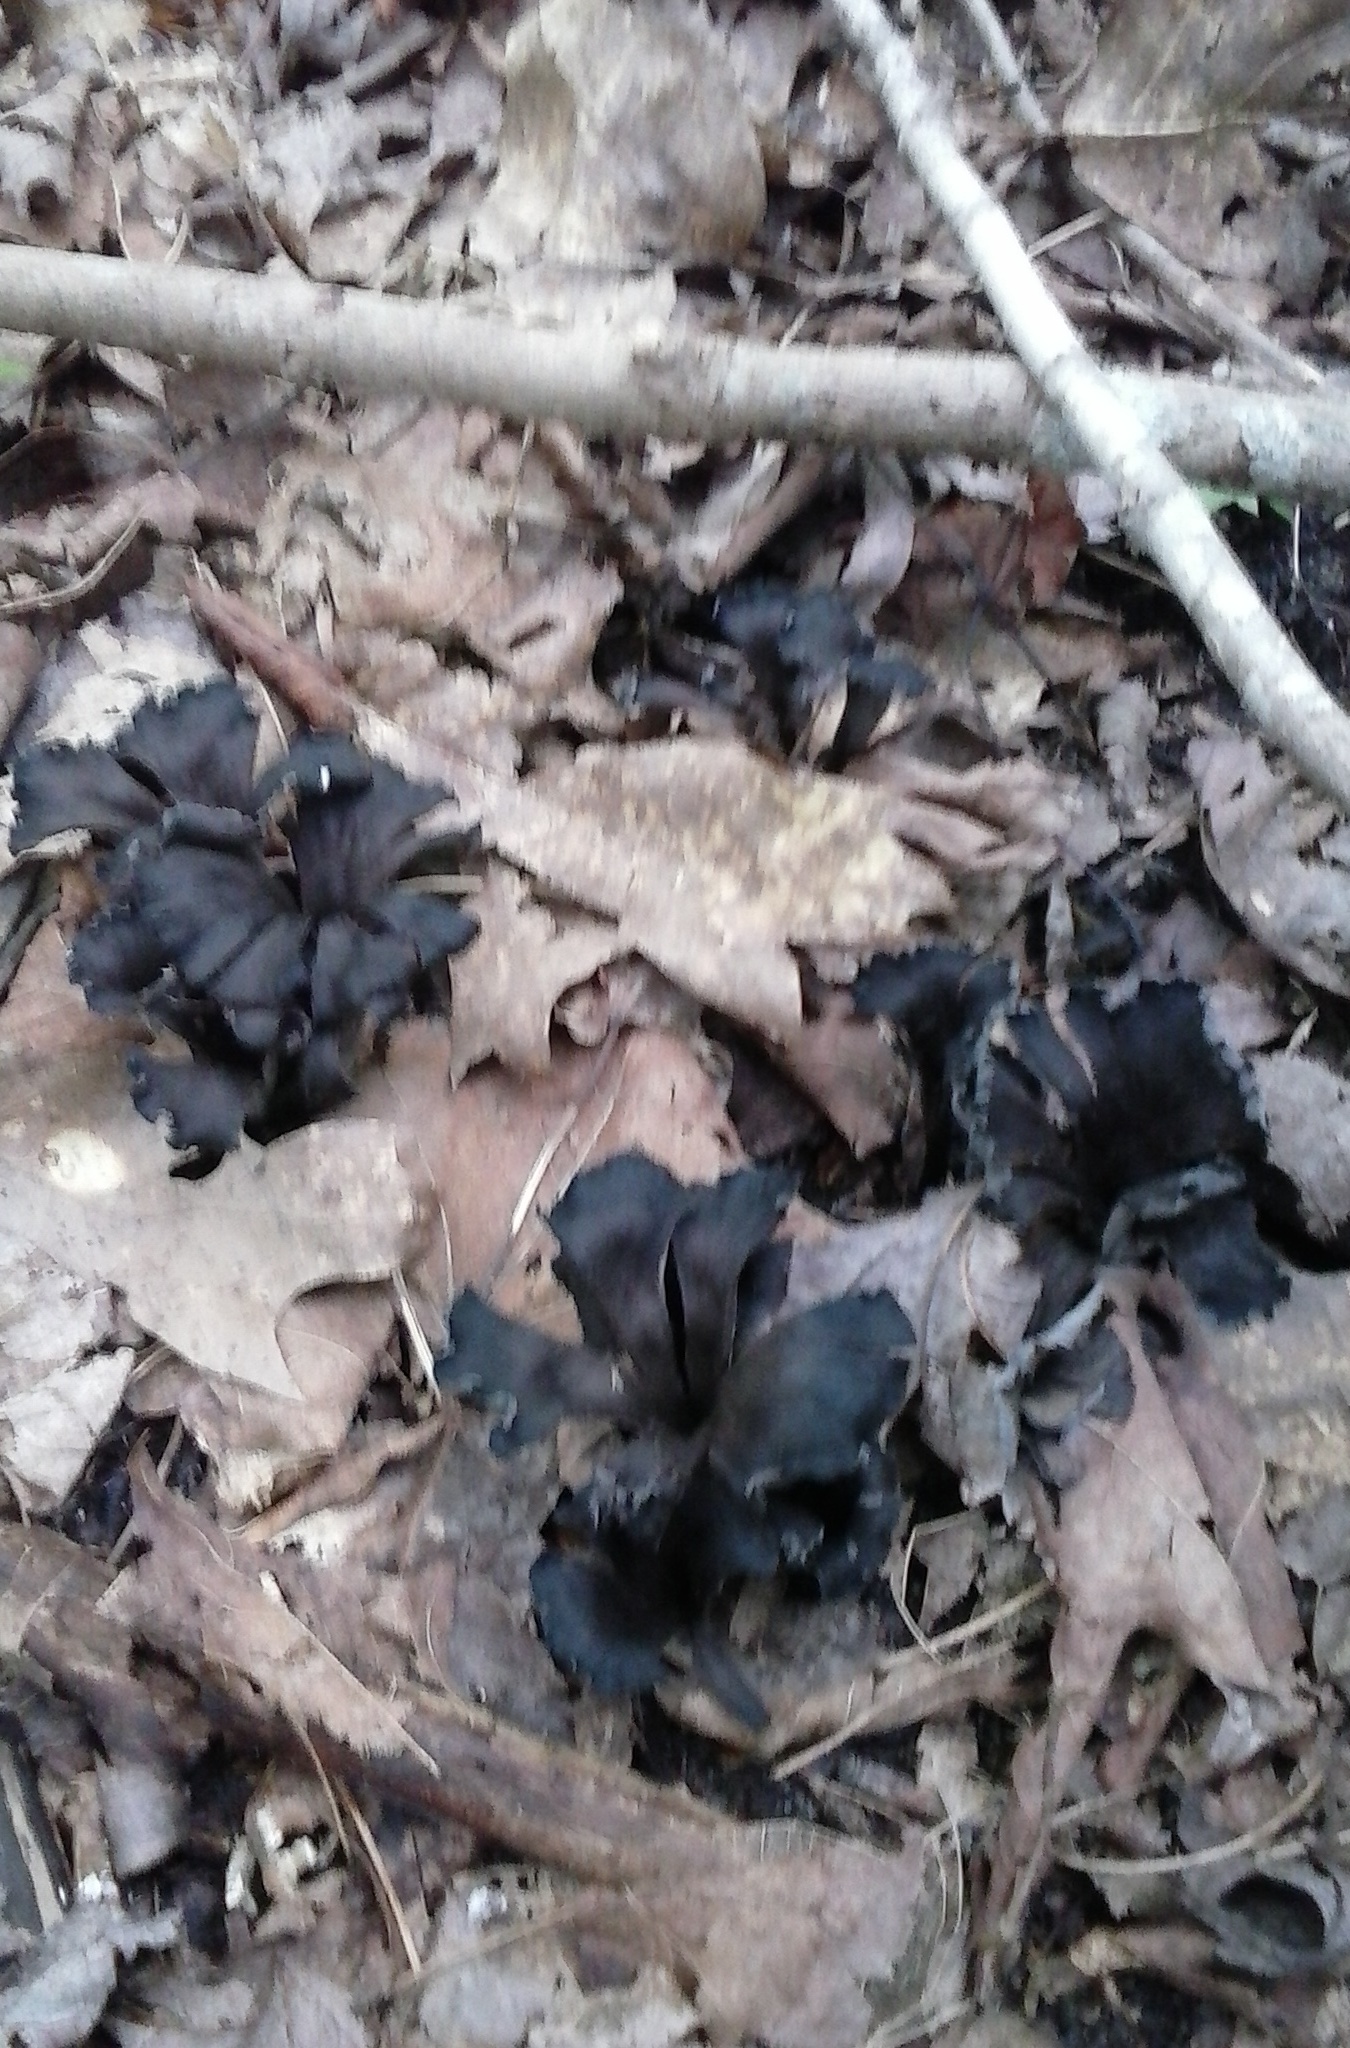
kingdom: Fungi
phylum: Basidiomycota
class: Agaricomycetes
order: Cantharellales
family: Hydnaceae
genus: Craterellus
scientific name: Craterellus cornucopioides
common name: Horn of plenty
